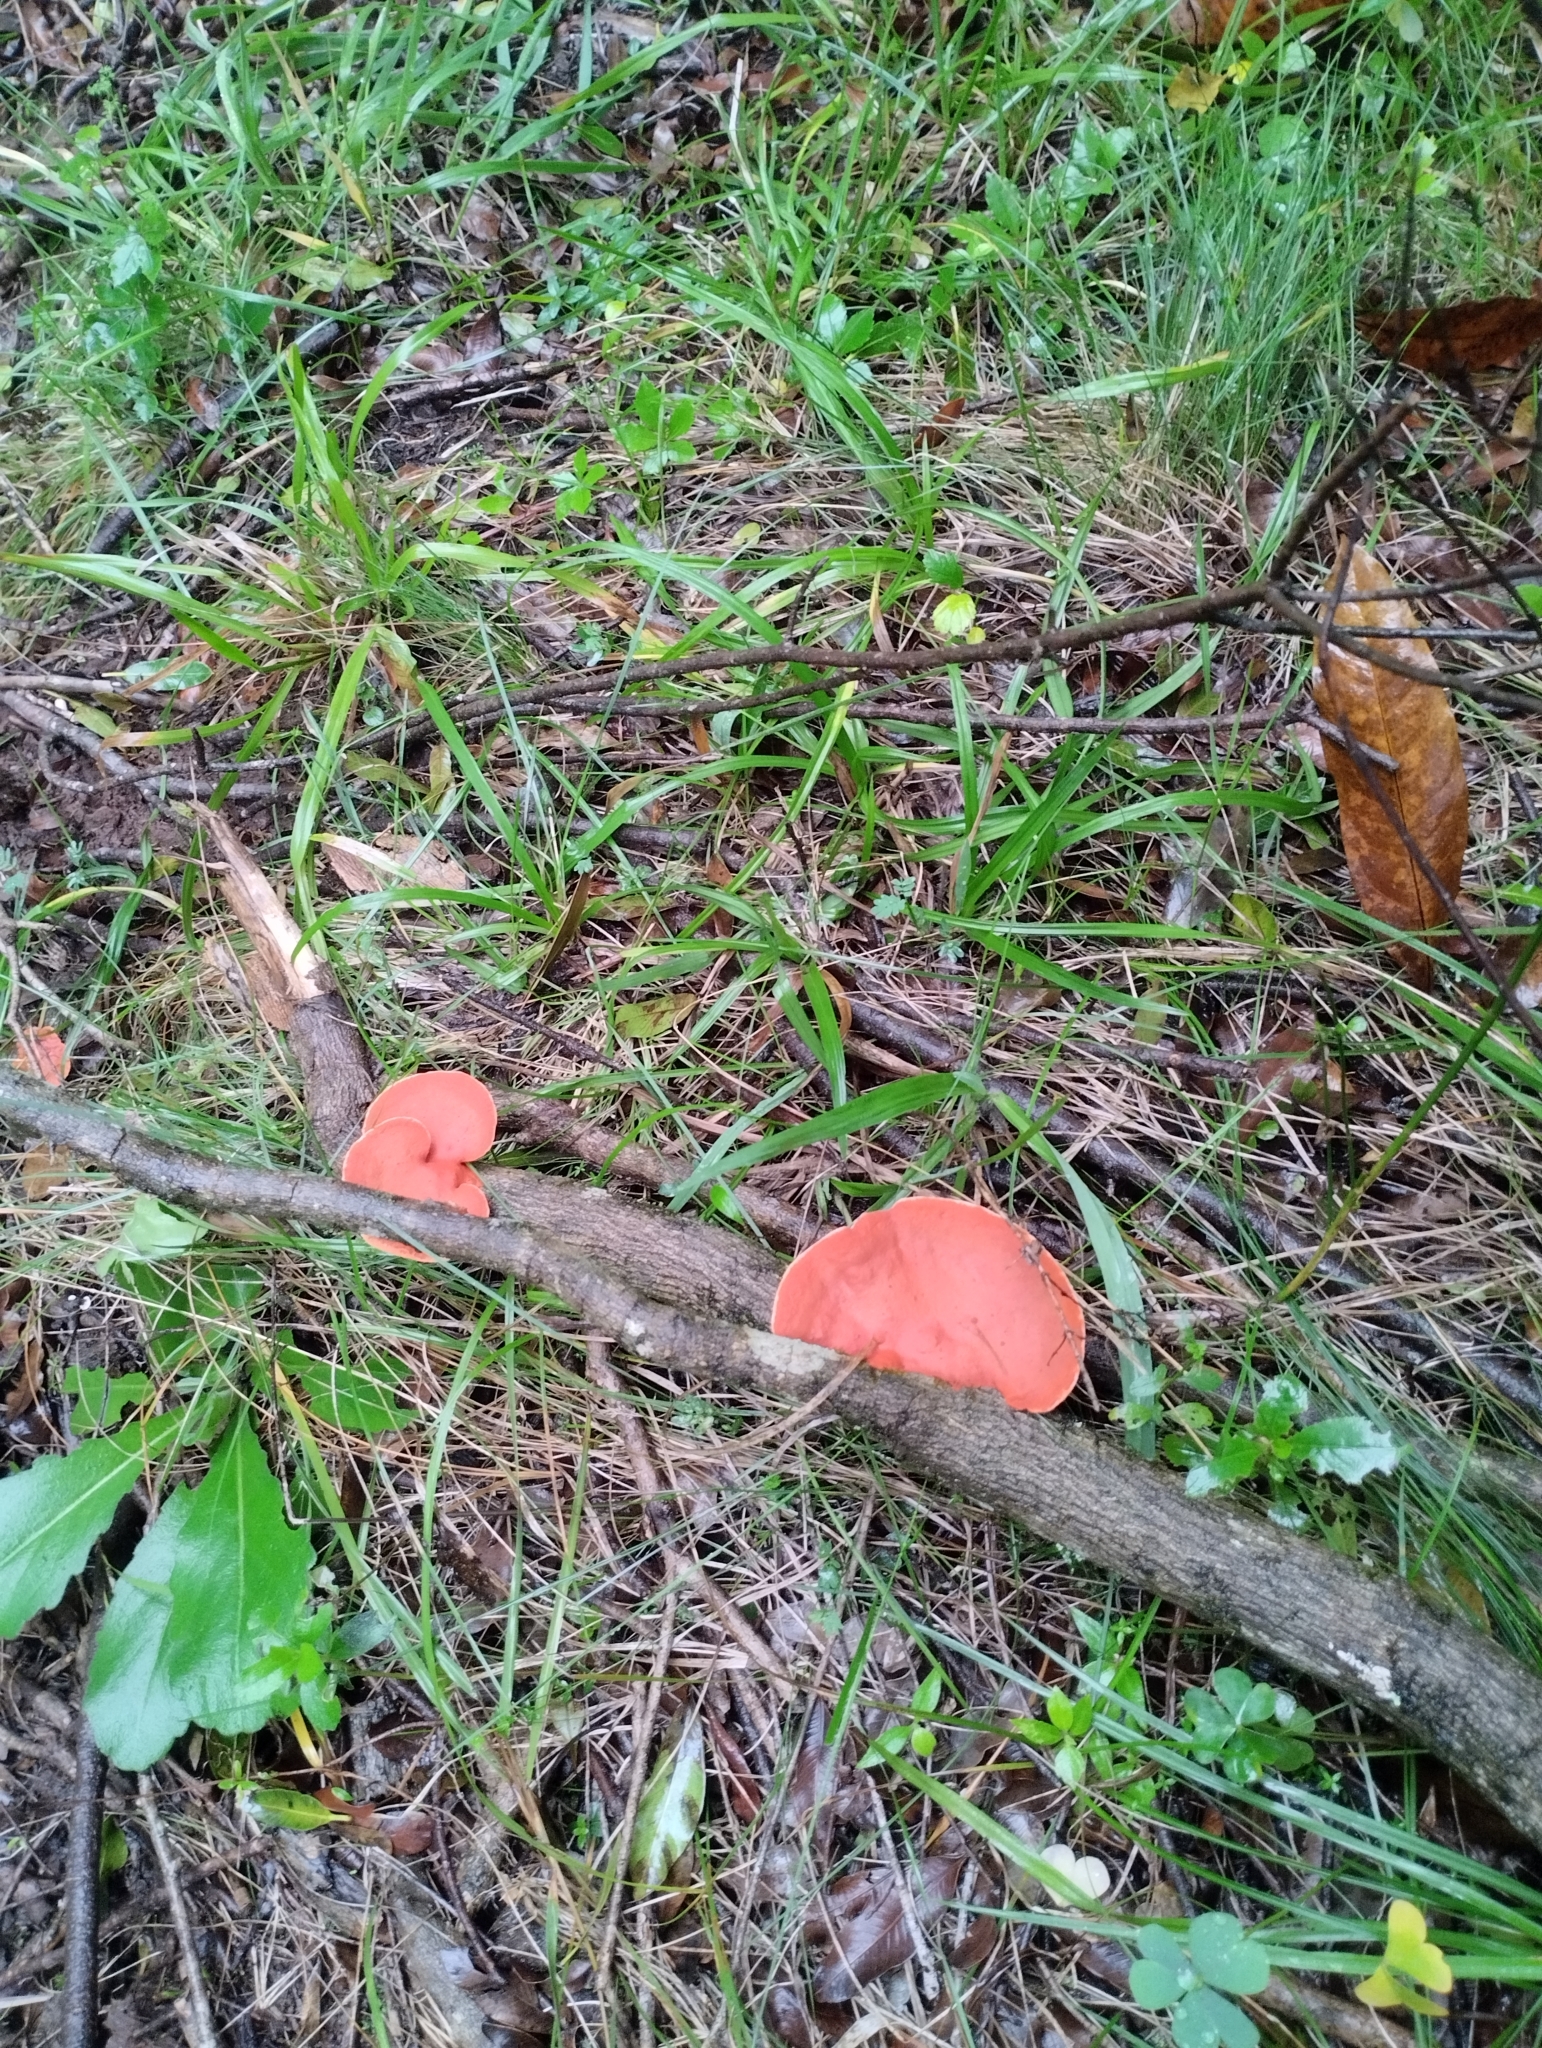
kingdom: Fungi
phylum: Basidiomycota
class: Agaricomycetes
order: Polyporales
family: Polyporaceae
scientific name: Polyporaceae
